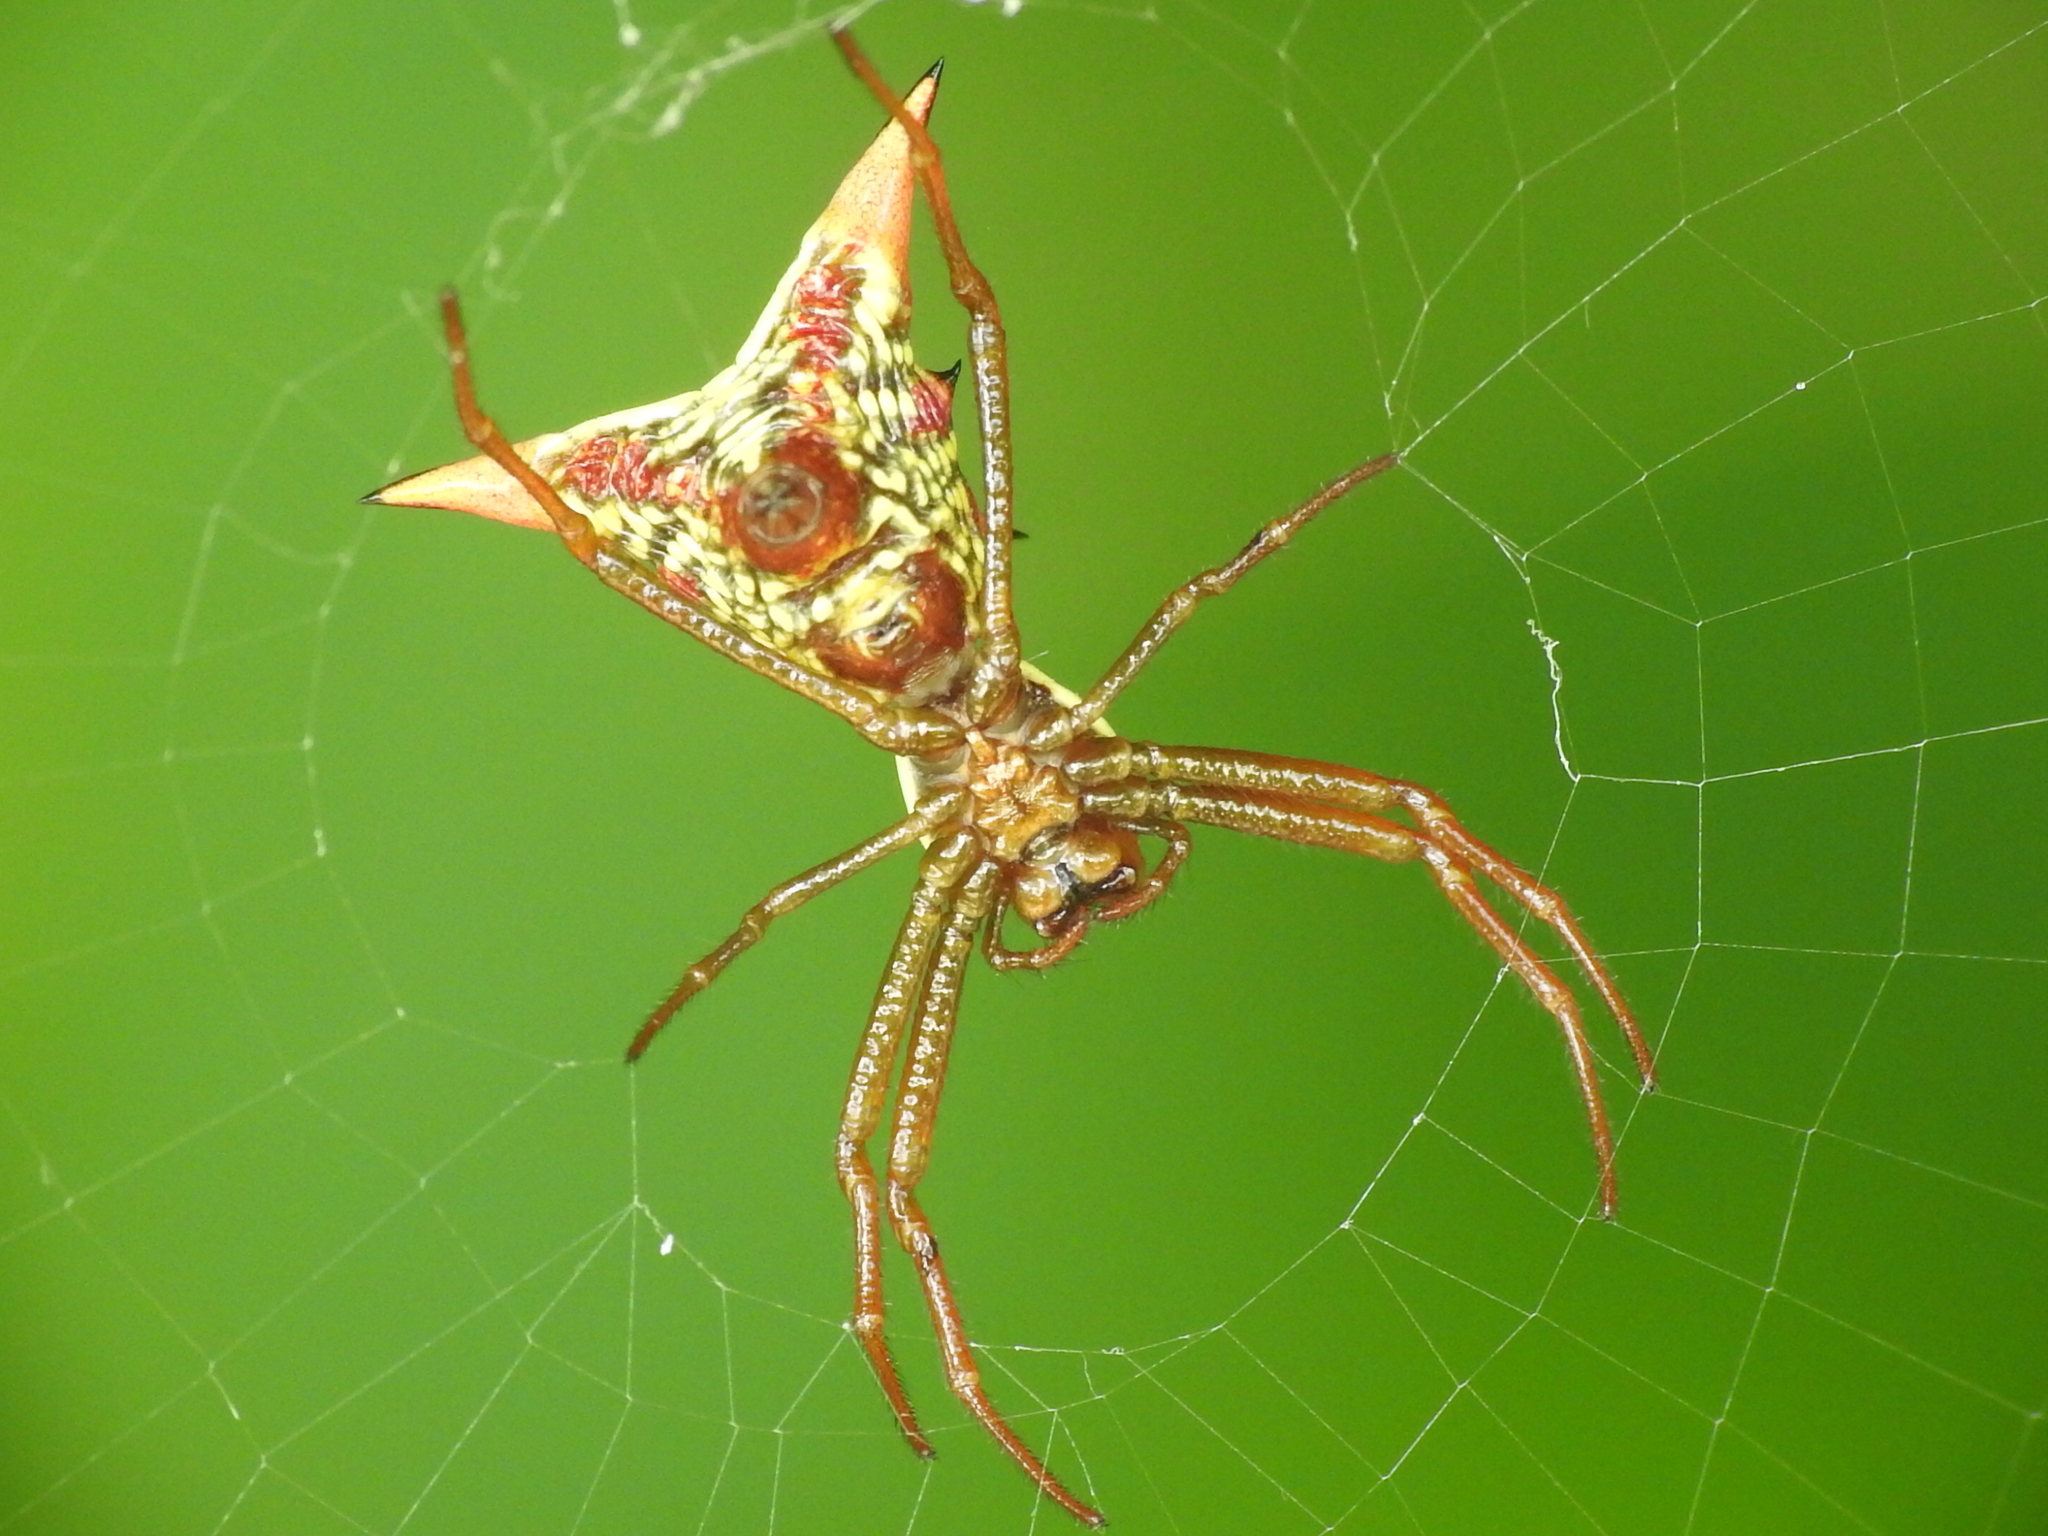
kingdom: Animalia
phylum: Arthropoda
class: Arachnida
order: Araneae
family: Araneidae
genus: Micrathena
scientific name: Micrathena sagittata
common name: Orb weavers
